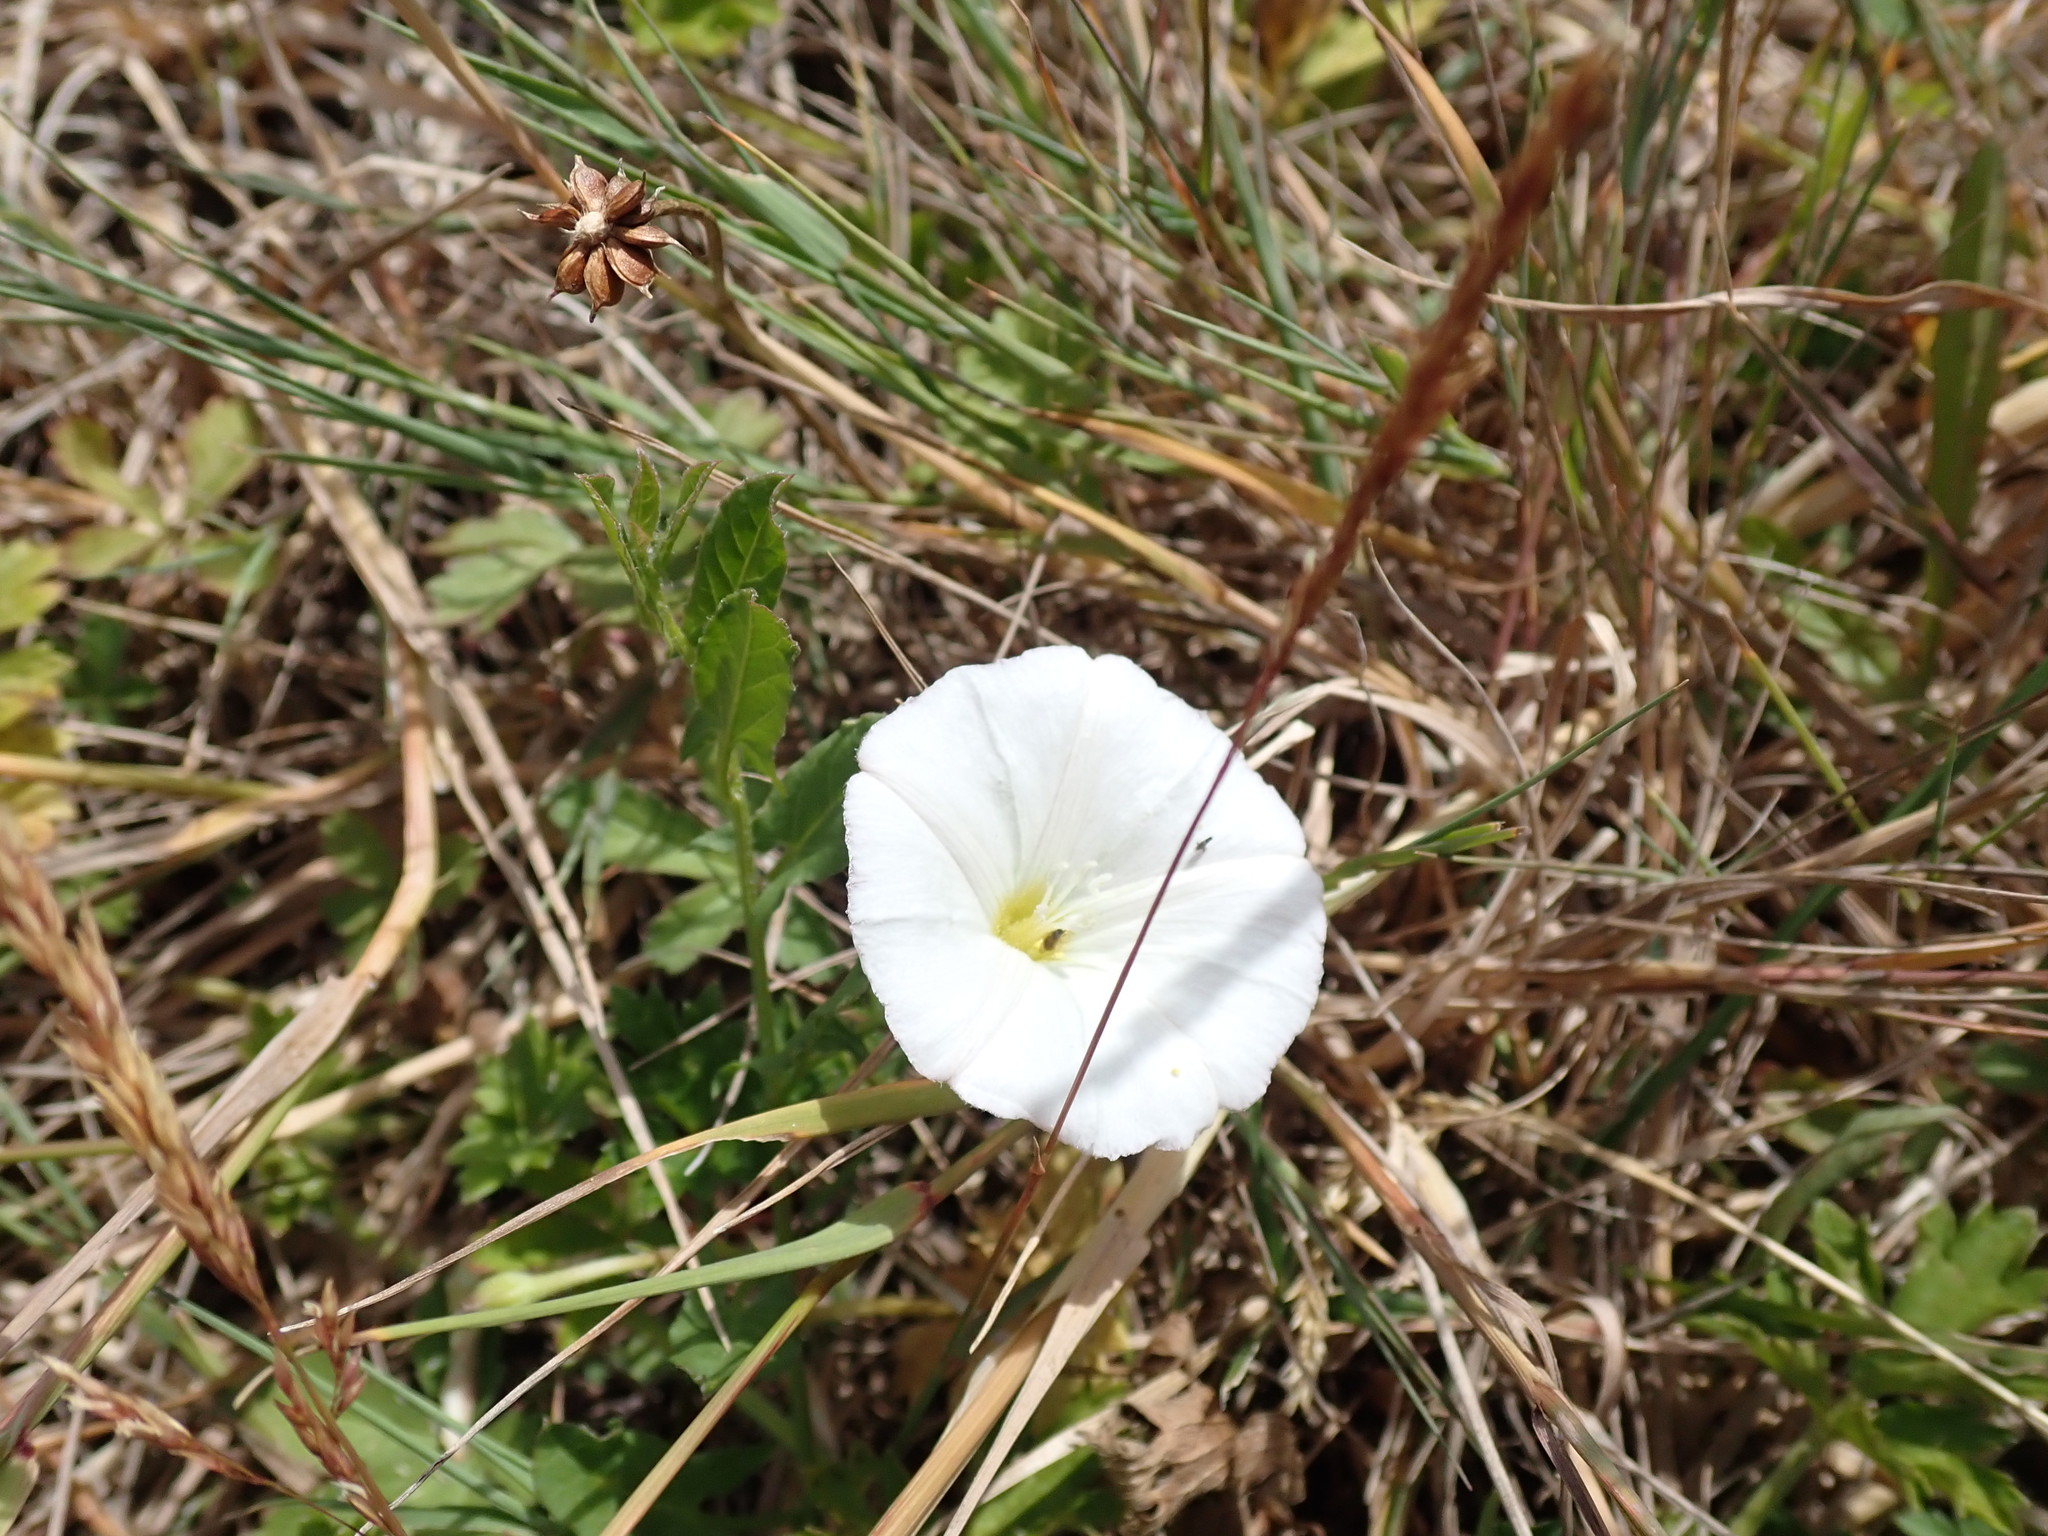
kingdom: Plantae
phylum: Tracheophyta
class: Magnoliopsida
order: Solanales
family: Convolvulaceae
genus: Convolvulus
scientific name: Convolvulus arvensis
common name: Field bindweed
